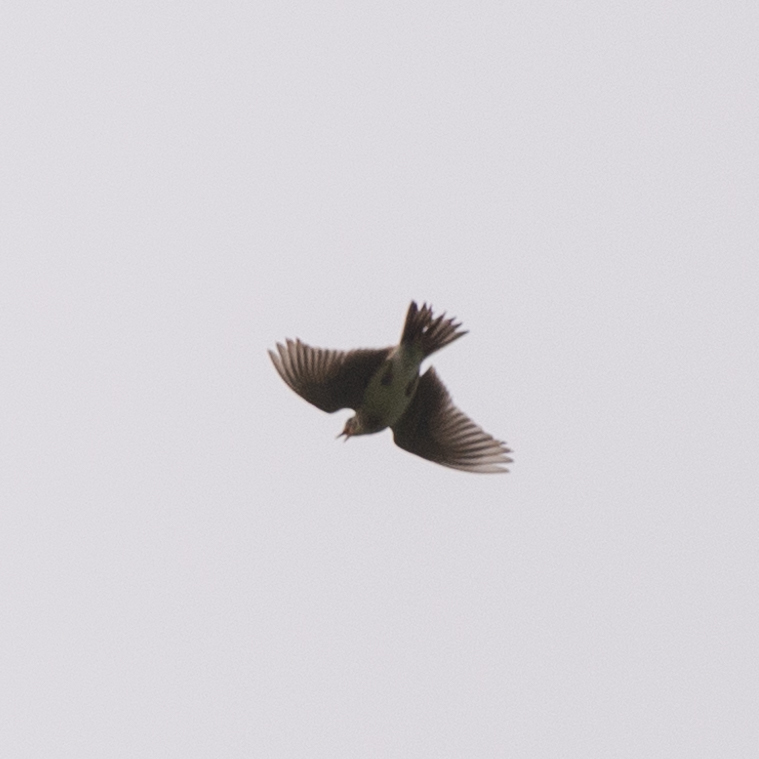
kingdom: Animalia
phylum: Chordata
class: Aves
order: Passeriformes
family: Alaudidae
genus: Alauda
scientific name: Alauda arvensis
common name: Eurasian skylark
